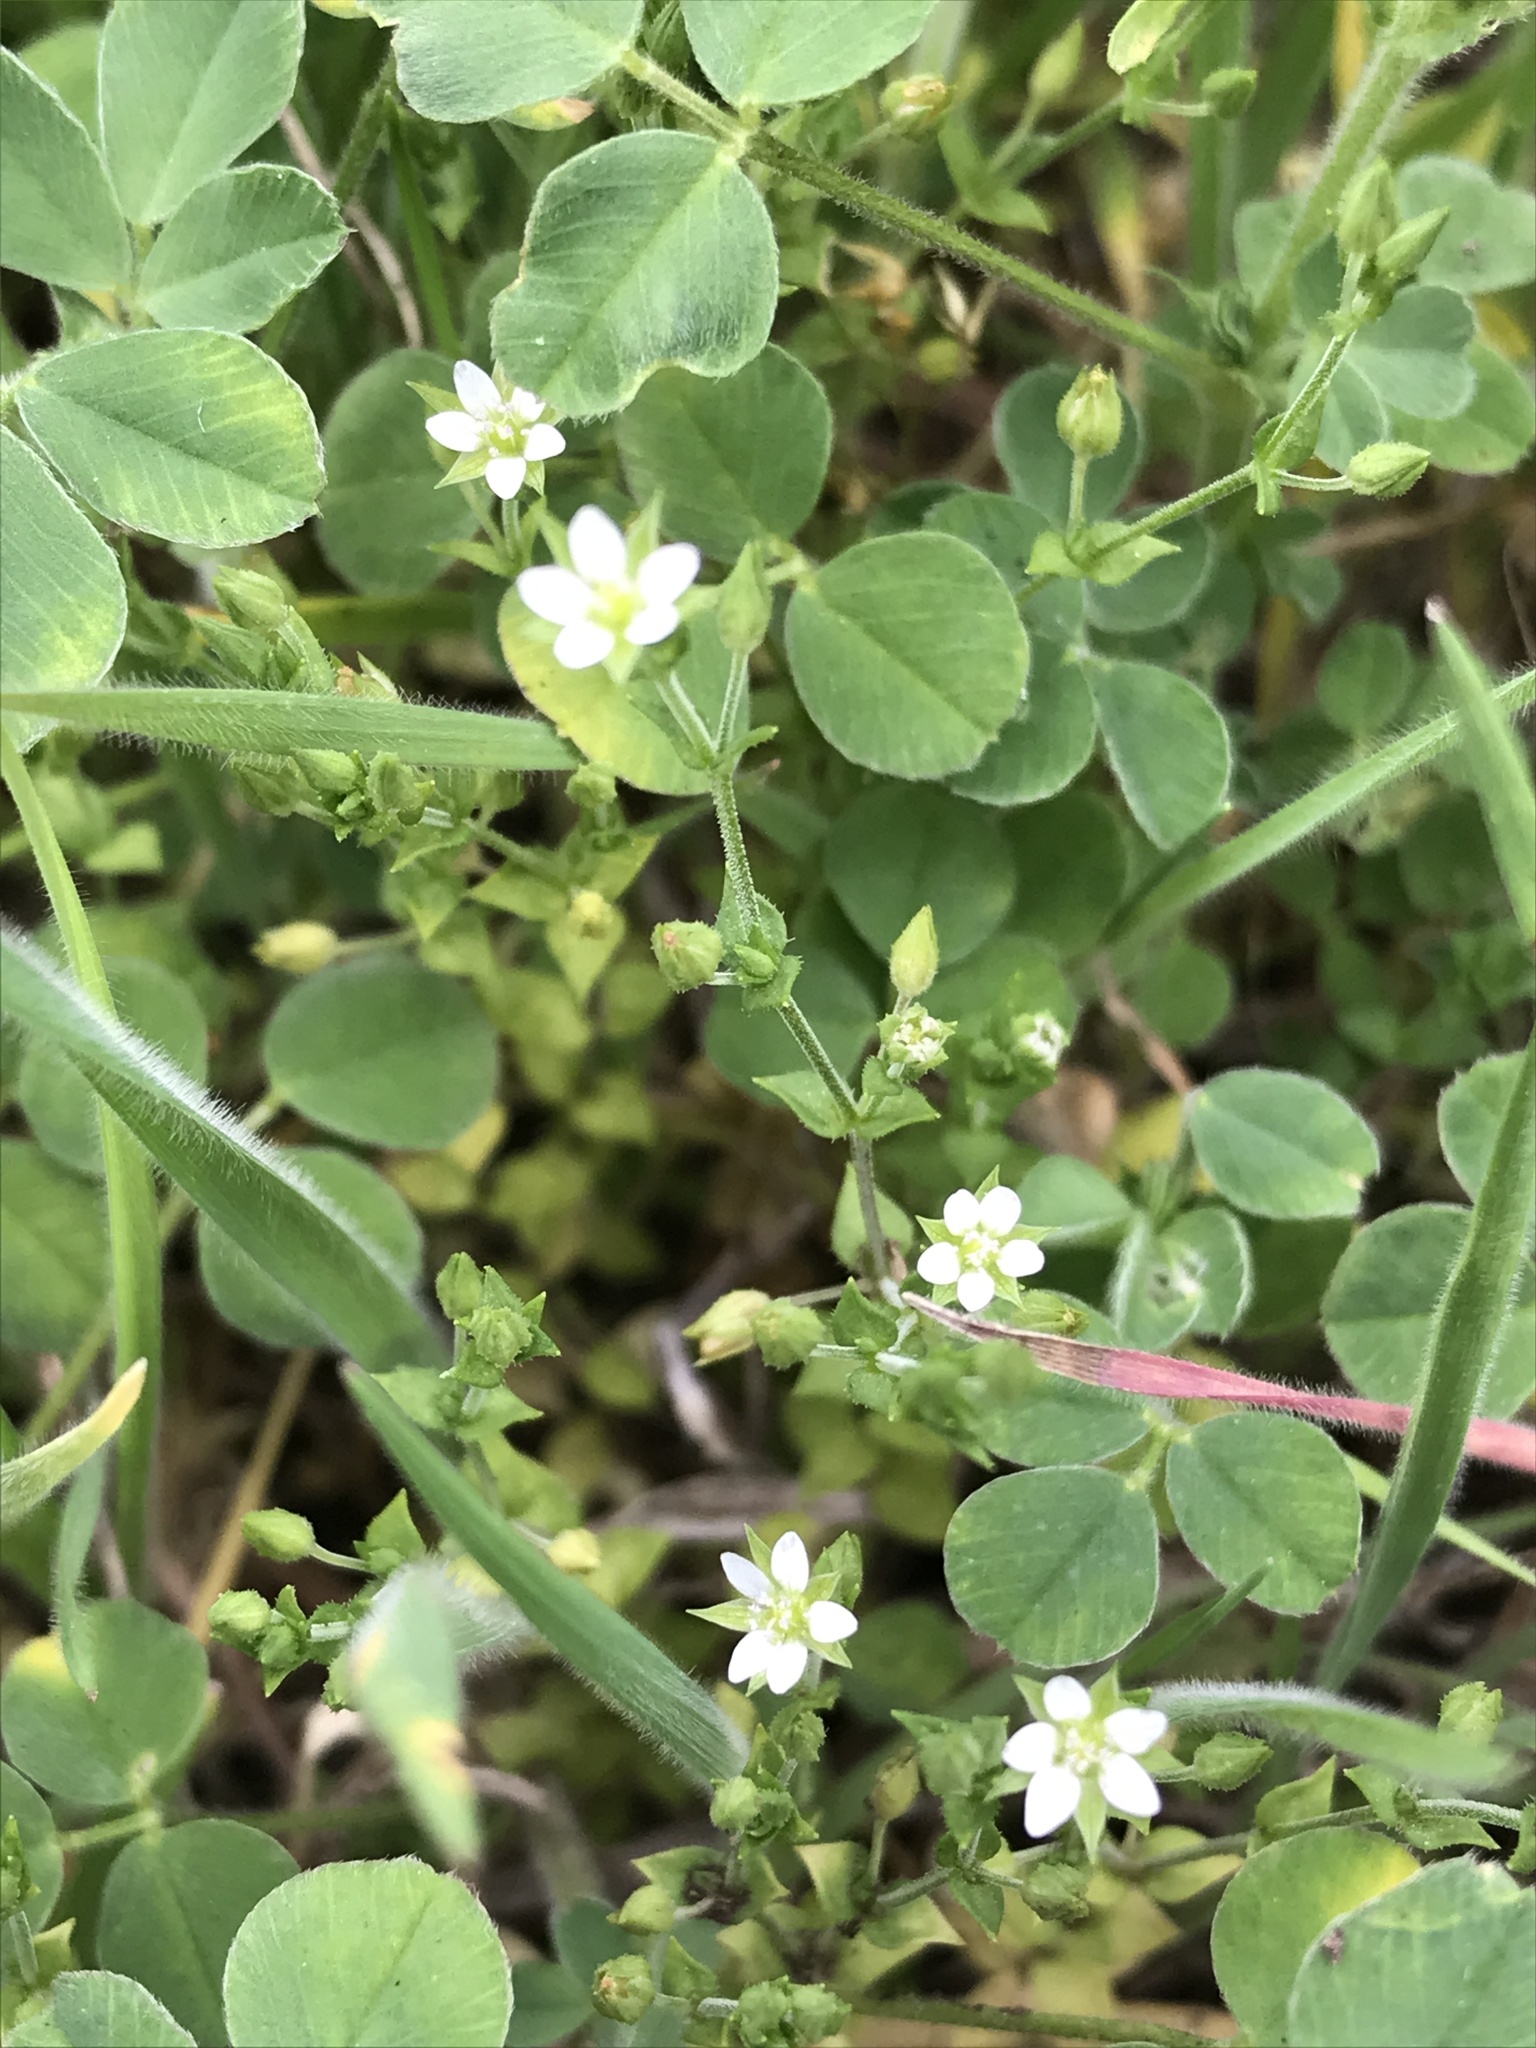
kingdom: Plantae
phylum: Tracheophyta
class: Magnoliopsida
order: Caryophyllales
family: Caryophyllaceae
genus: Arenaria
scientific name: Arenaria serpyllifolia
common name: Thyme-leaved sandwort
